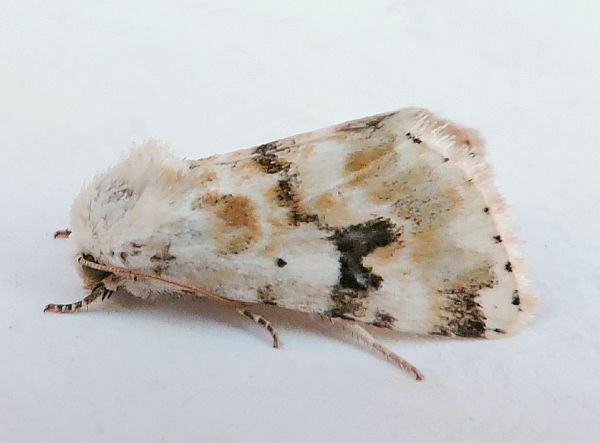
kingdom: Animalia
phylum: Arthropoda
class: Insecta
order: Lepidoptera
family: Noctuidae
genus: Schinia
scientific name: Schinia nundina
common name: Goldenrod flower moth
